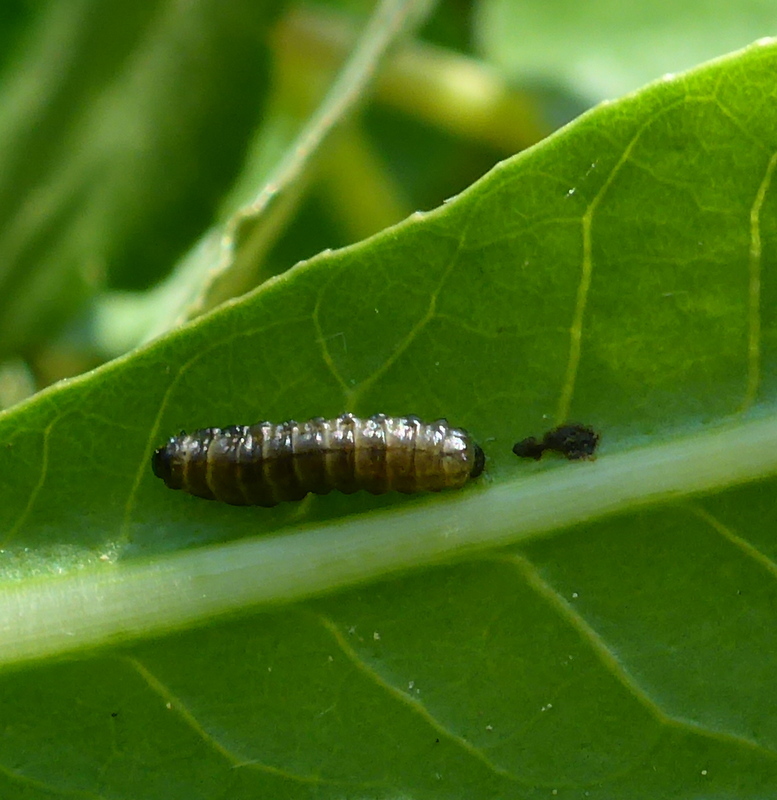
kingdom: Animalia
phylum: Arthropoda
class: Insecta
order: Coleoptera
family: Chrysomelidae
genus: Agasicles
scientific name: Agasicles hygrophila
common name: Alligatorweed flea beetle
